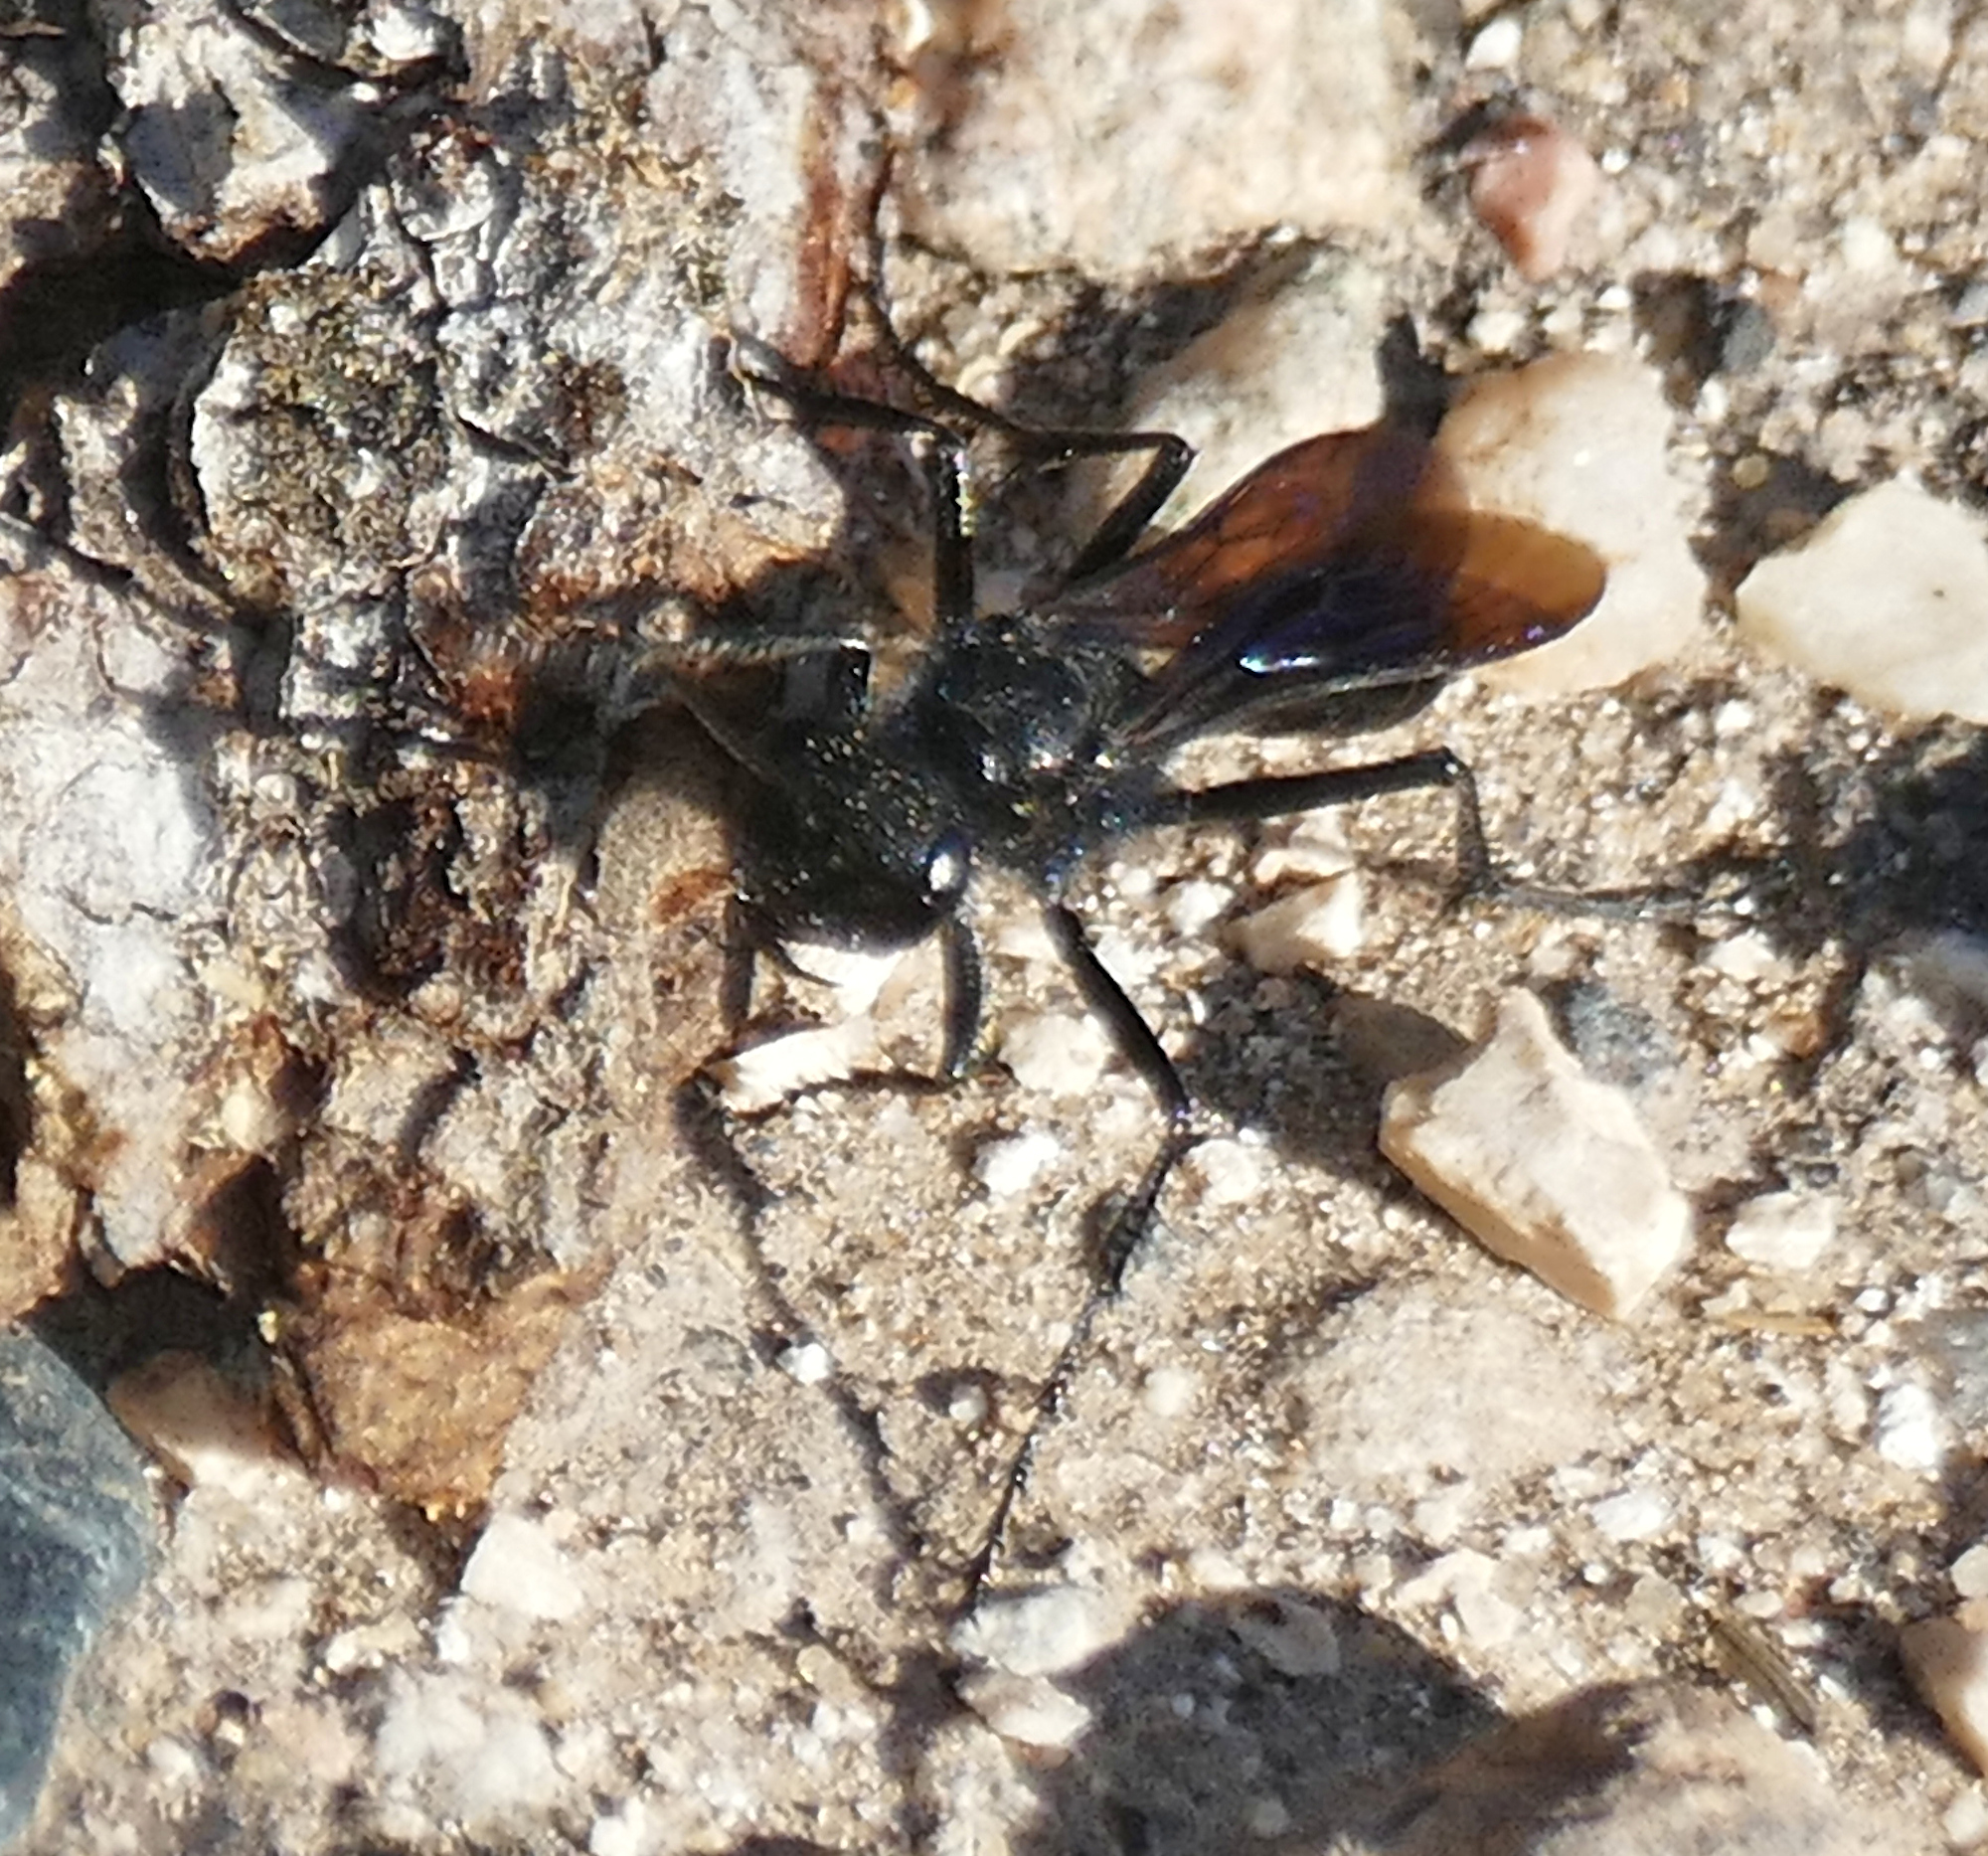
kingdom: Animalia
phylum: Arthropoda
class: Insecta
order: Hymenoptera
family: Sphecidae
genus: Podalonia
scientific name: Podalonia
